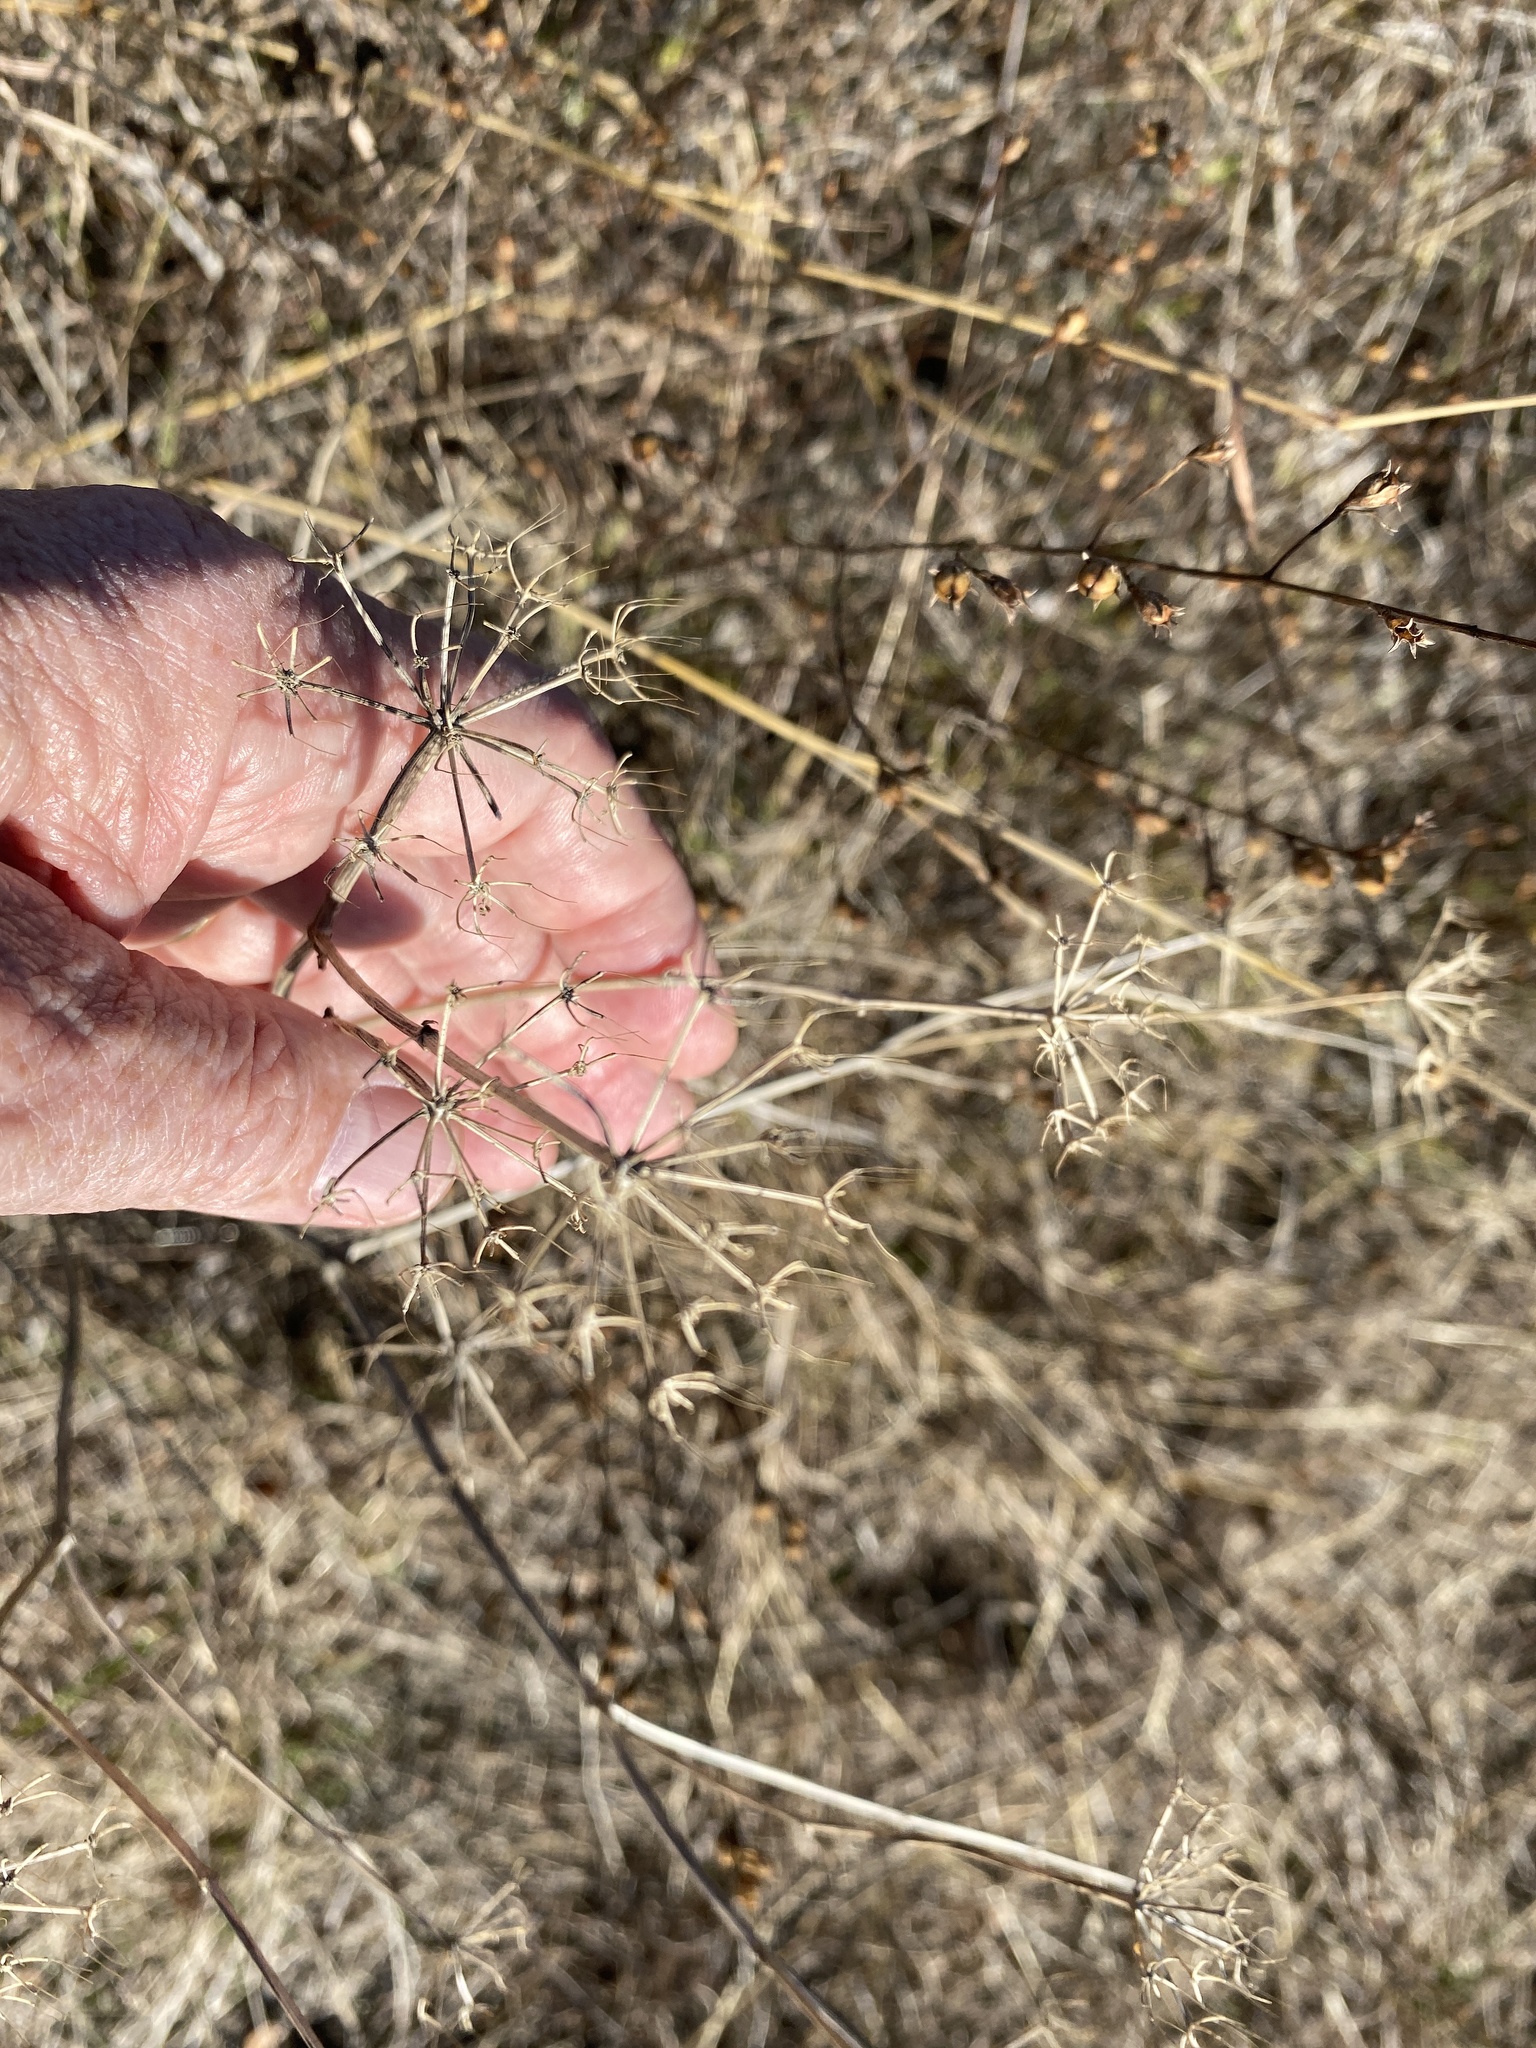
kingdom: Plantae
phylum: Tracheophyta
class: Magnoliopsida
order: Apiales
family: Apiaceae
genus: Polytaenia
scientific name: Polytaenia texana
